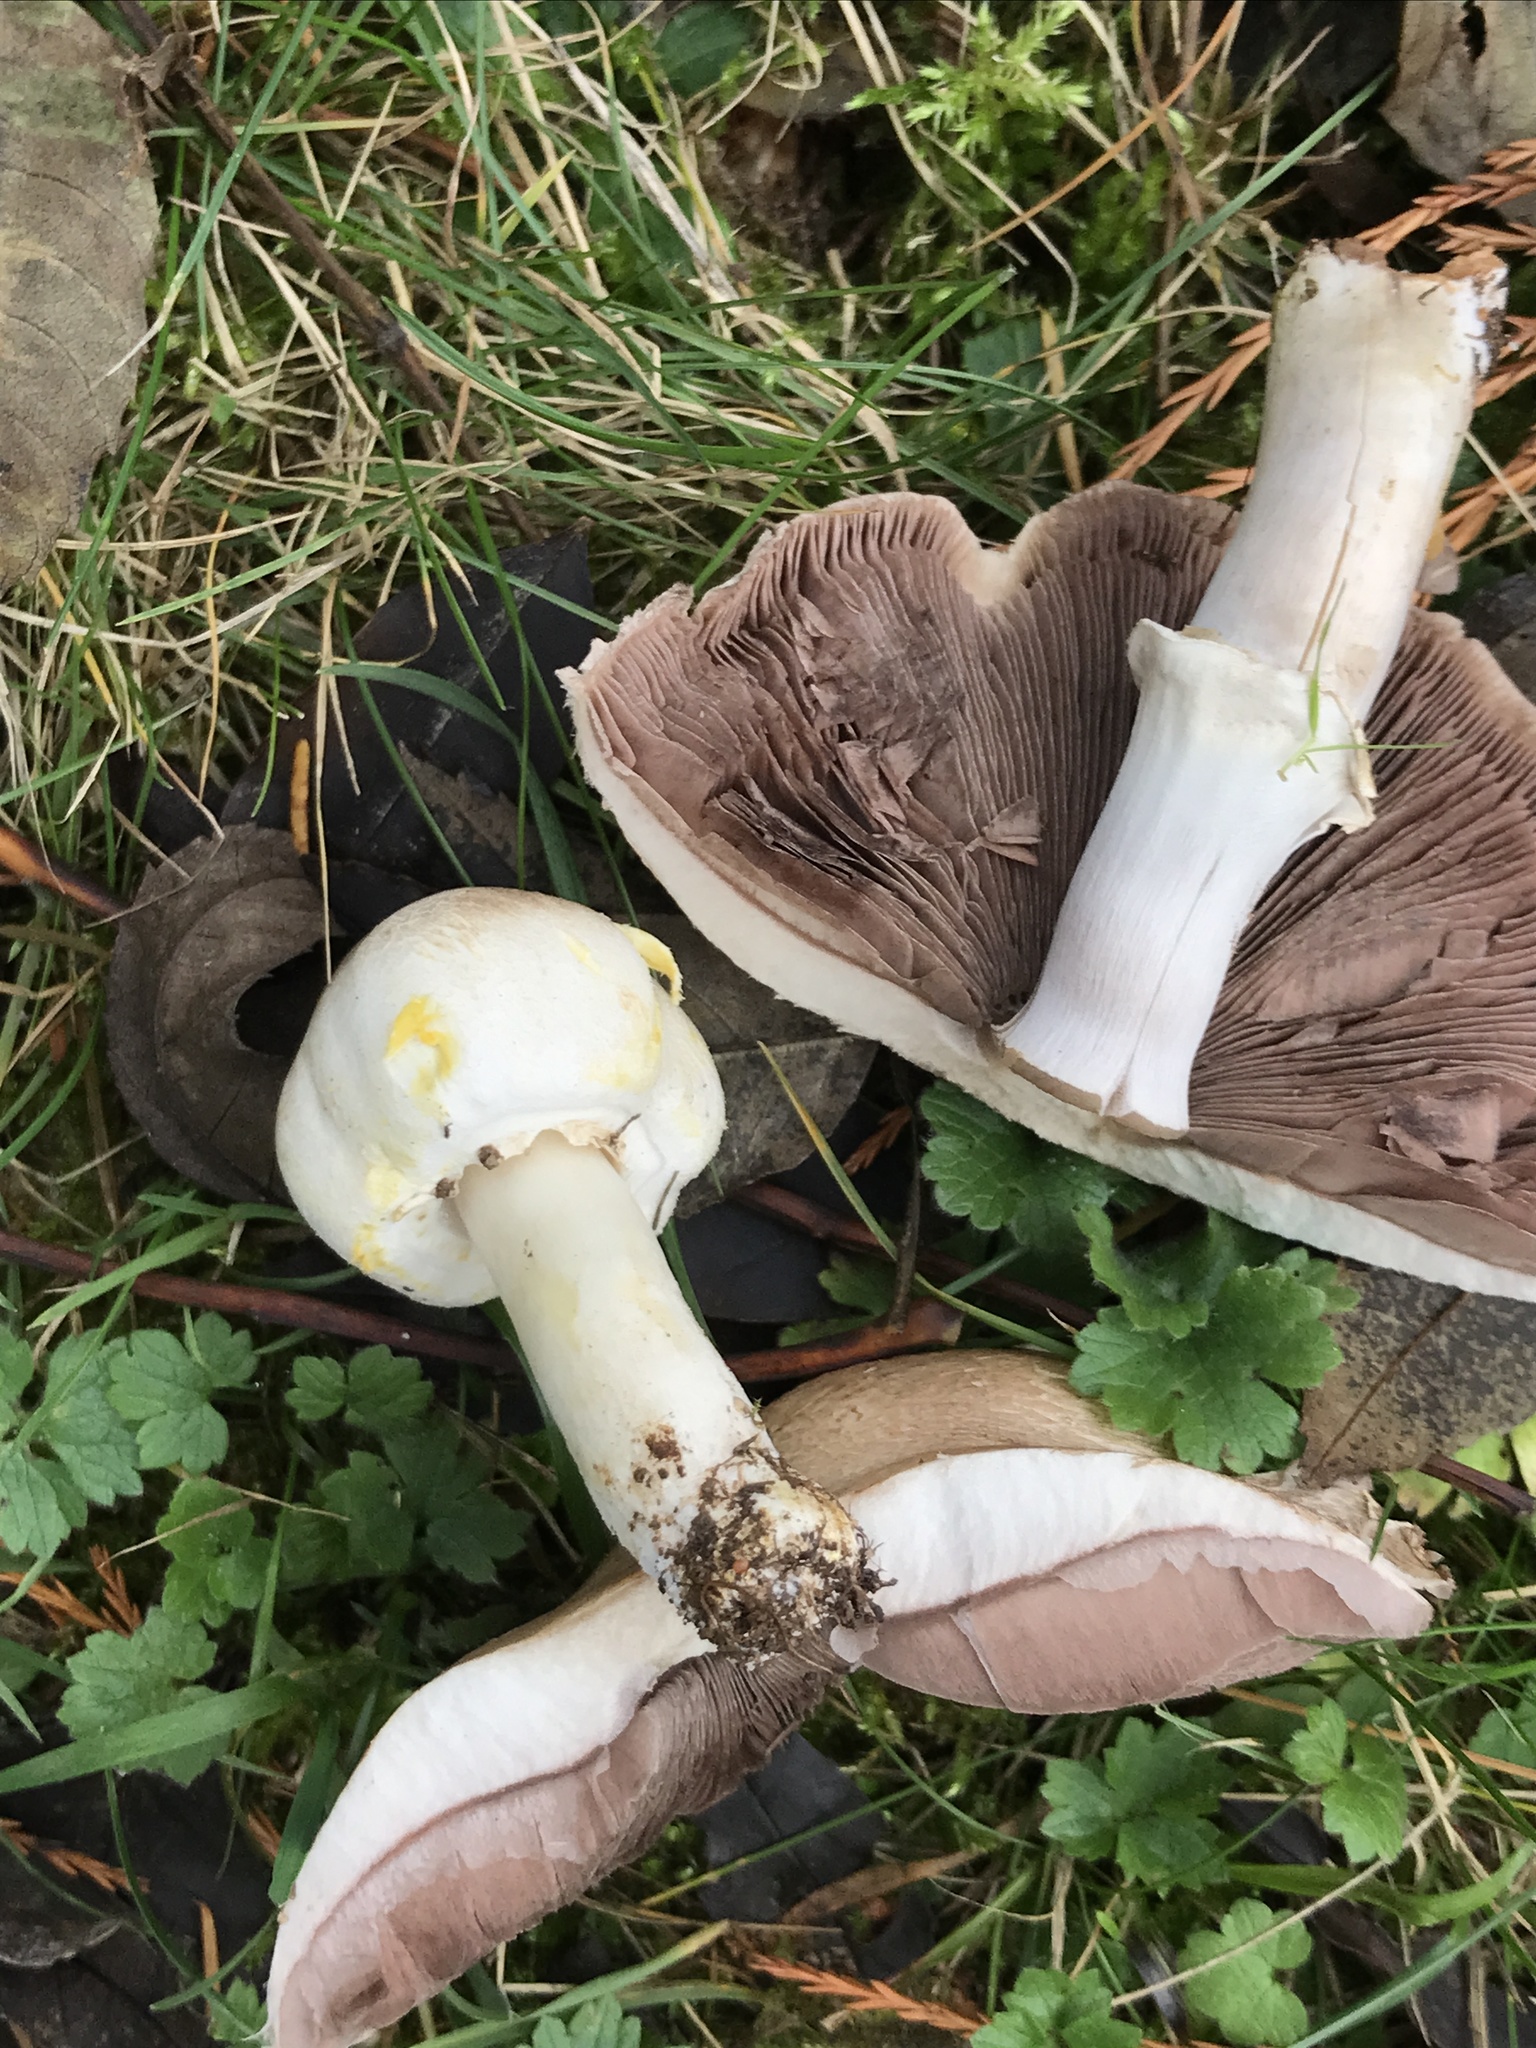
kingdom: Fungi
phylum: Basidiomycota
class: Agaricomycetes
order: Agaricales
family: Agaricaceae
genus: Agaricus
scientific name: Agaricus xanthodermus
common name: Yellow stainer
